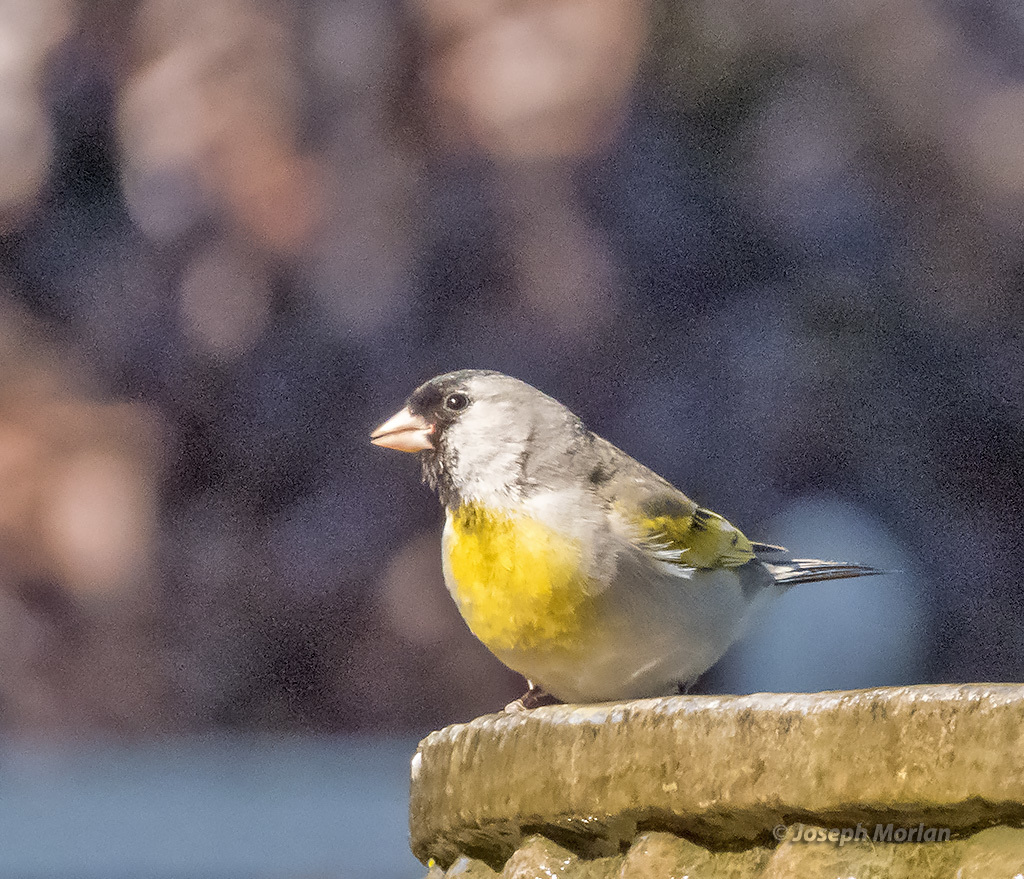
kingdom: Animalia
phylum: Chordata
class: Aves
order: Passeriformes
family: Fringillidae
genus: Spinus
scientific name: Spinus lawrencei
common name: Lawrence's goldfinch
